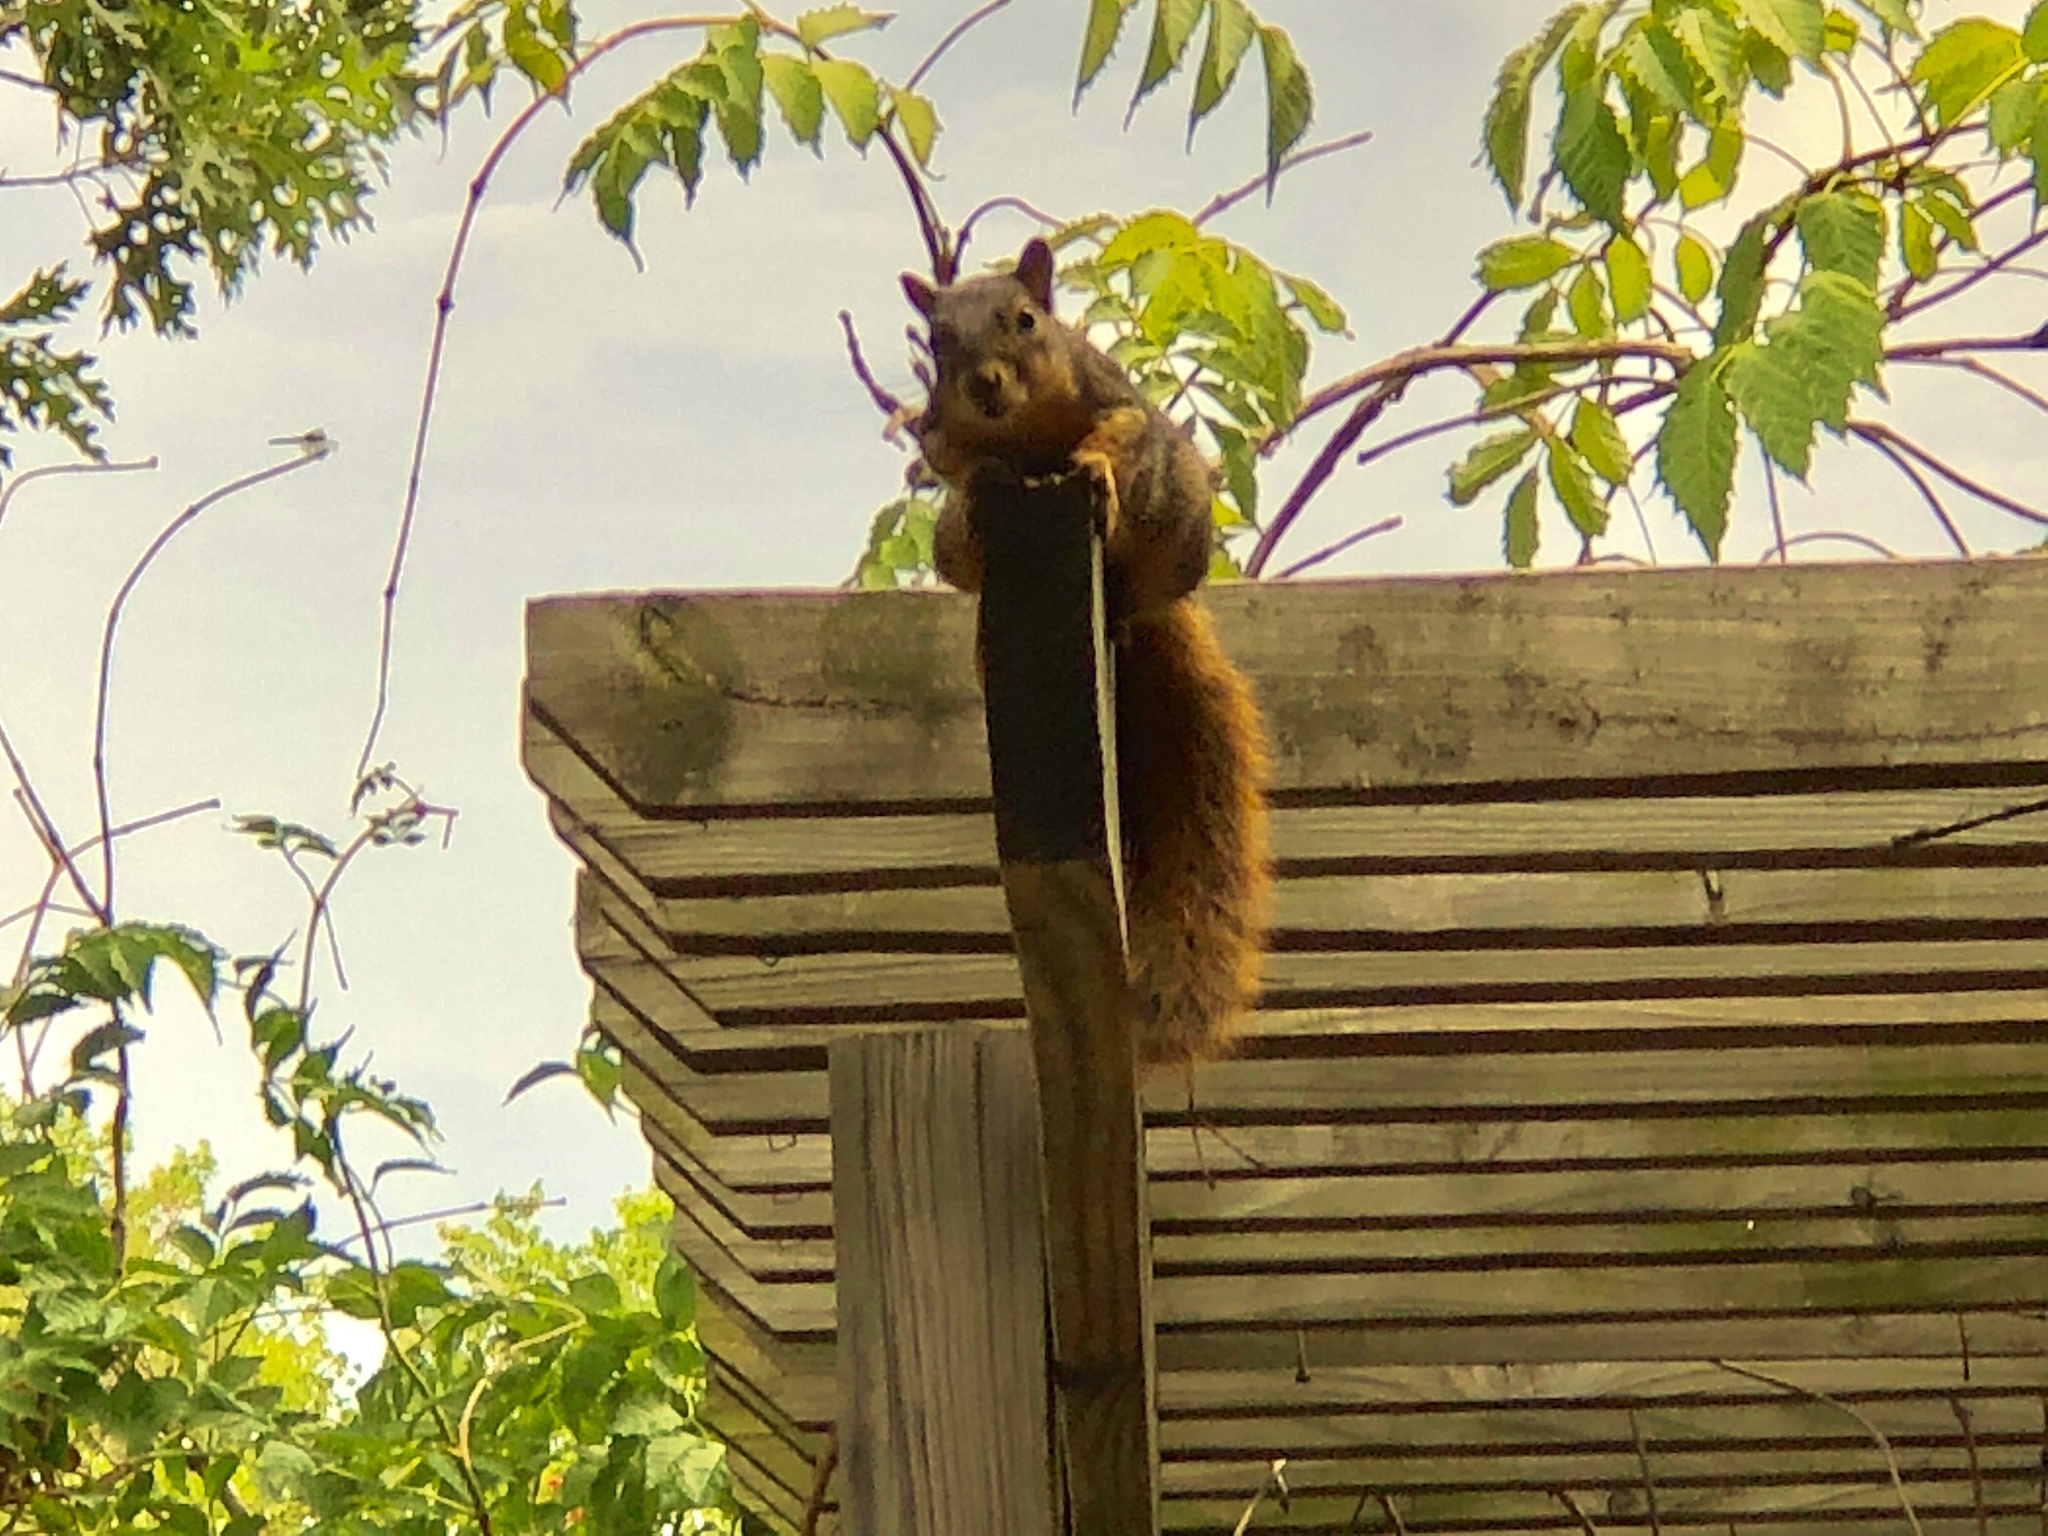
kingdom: Animalia
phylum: Chordata
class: Mammalia
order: Rodentia
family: Sciuridae
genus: Sciurus
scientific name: Sciurus niger
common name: Fox squirrel
